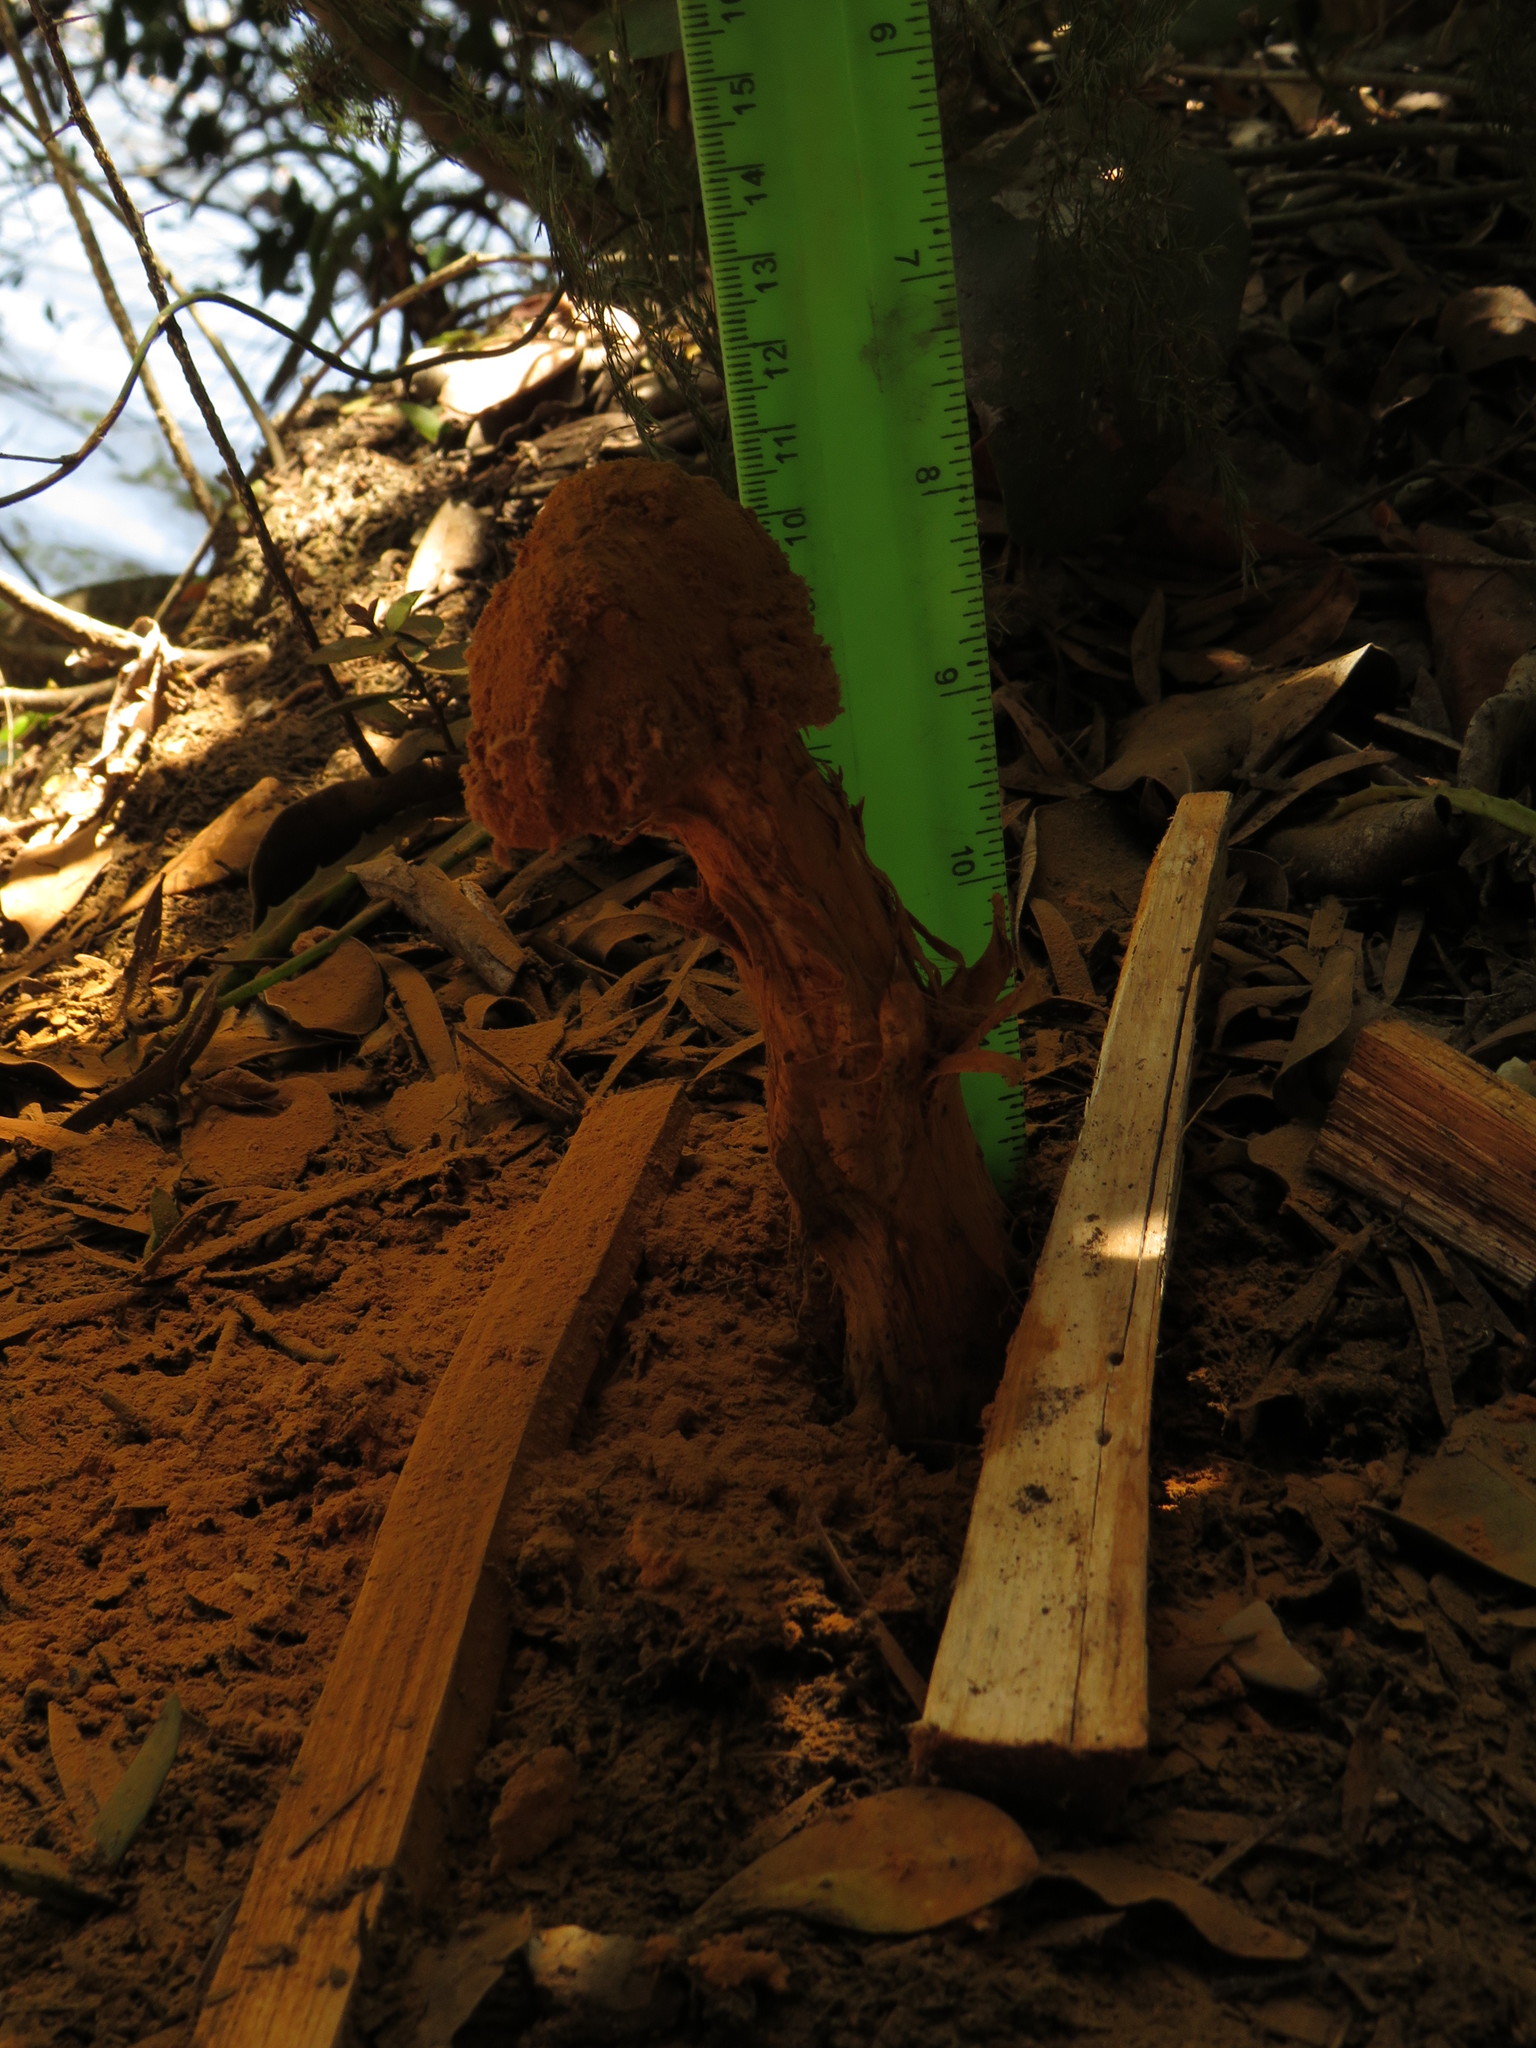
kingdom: Fungi
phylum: Basidiomycota
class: Agaricomycetes
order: Agaricales
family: Agaricaceae
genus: Battarrea
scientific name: Battarrea phalloides
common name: Sandy stiltball
